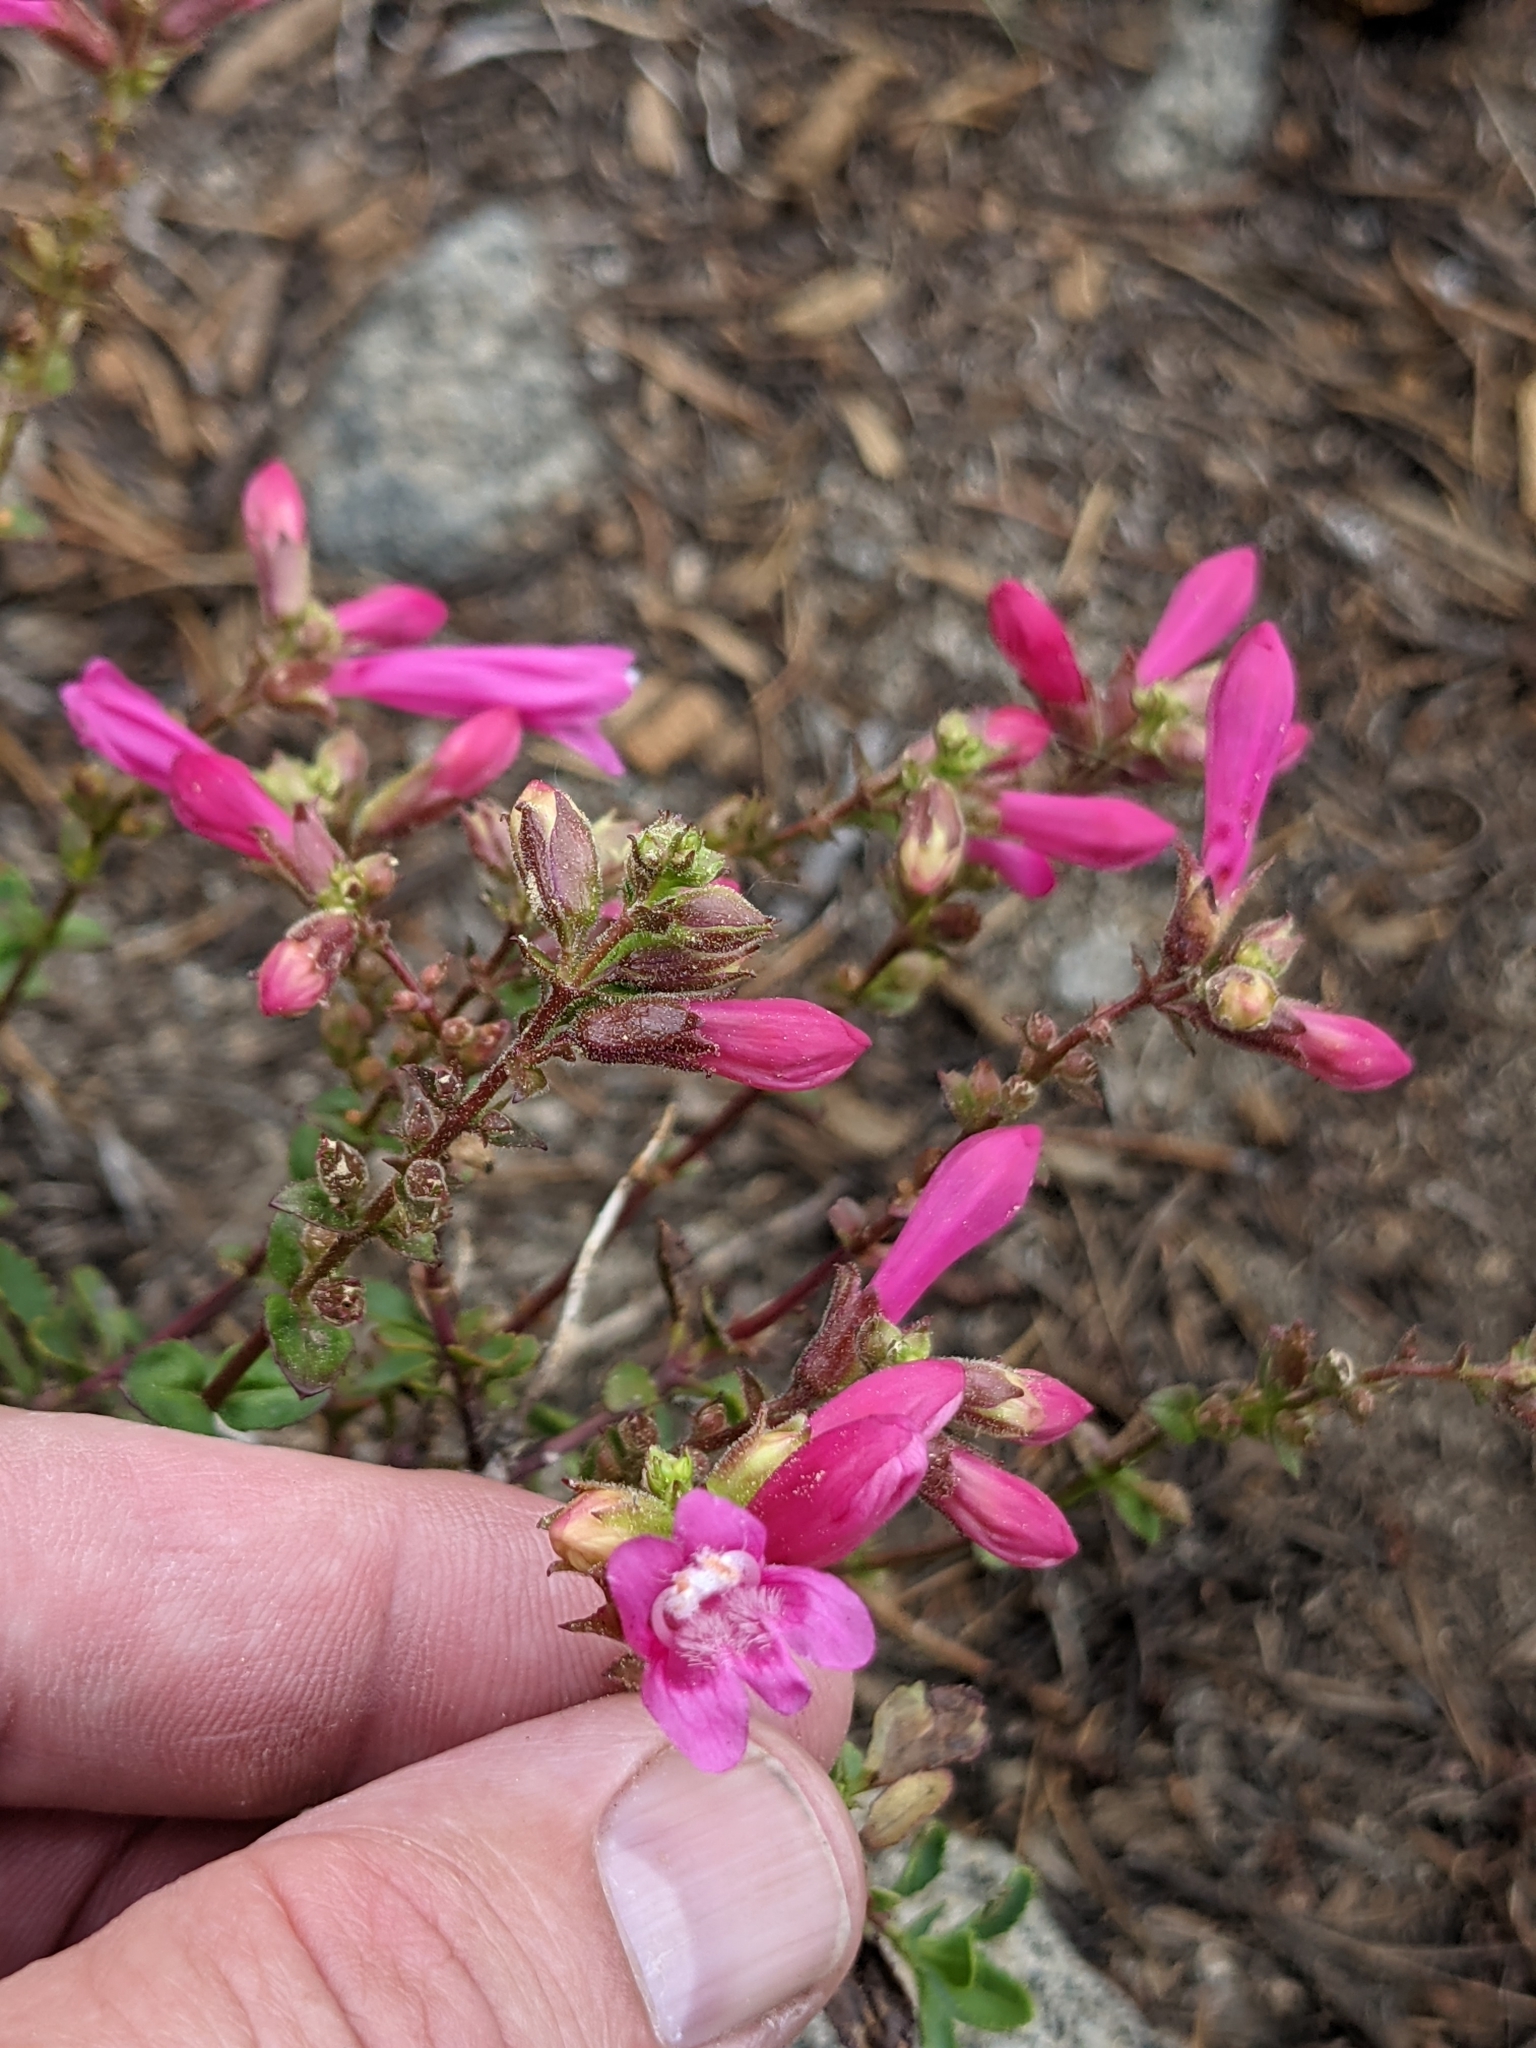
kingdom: Plantae
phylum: Tracheophyta
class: Magnoliopsida
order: Lamiales
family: Plantaginaceae
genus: Penstemon
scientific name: Penstemon newberryi
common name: Mountain-pride
